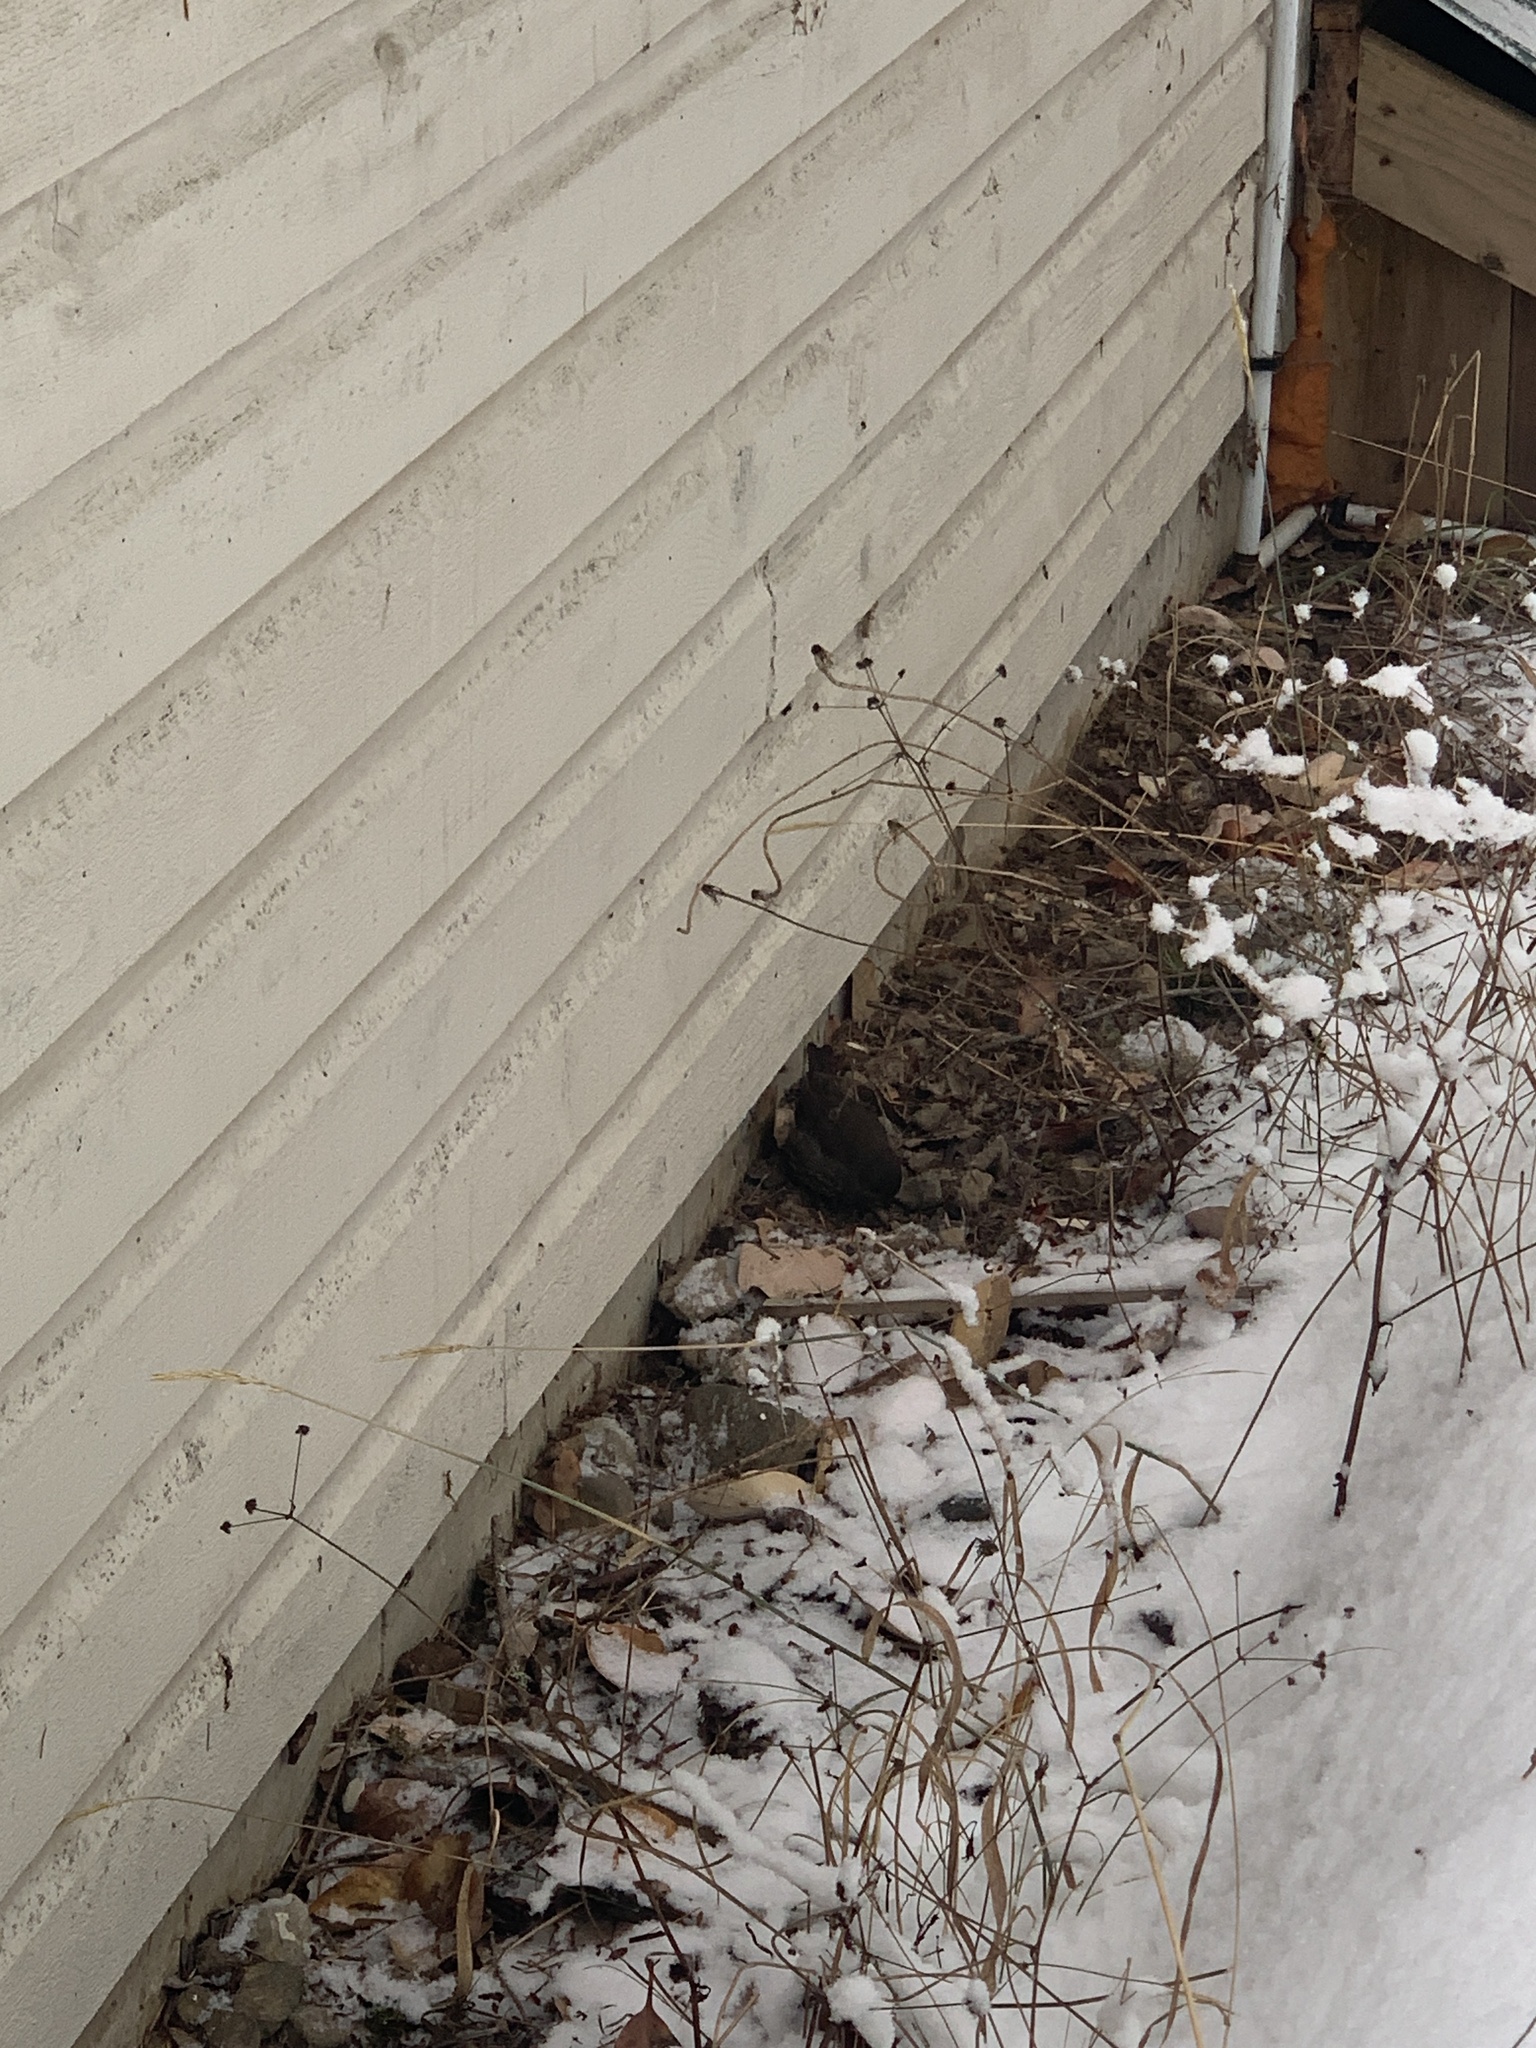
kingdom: Animalia
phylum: Chordata
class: Aves
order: Passeriformes
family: Passerellidae
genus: Passerella
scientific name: Passerella iliaca
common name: Fox sparrow
